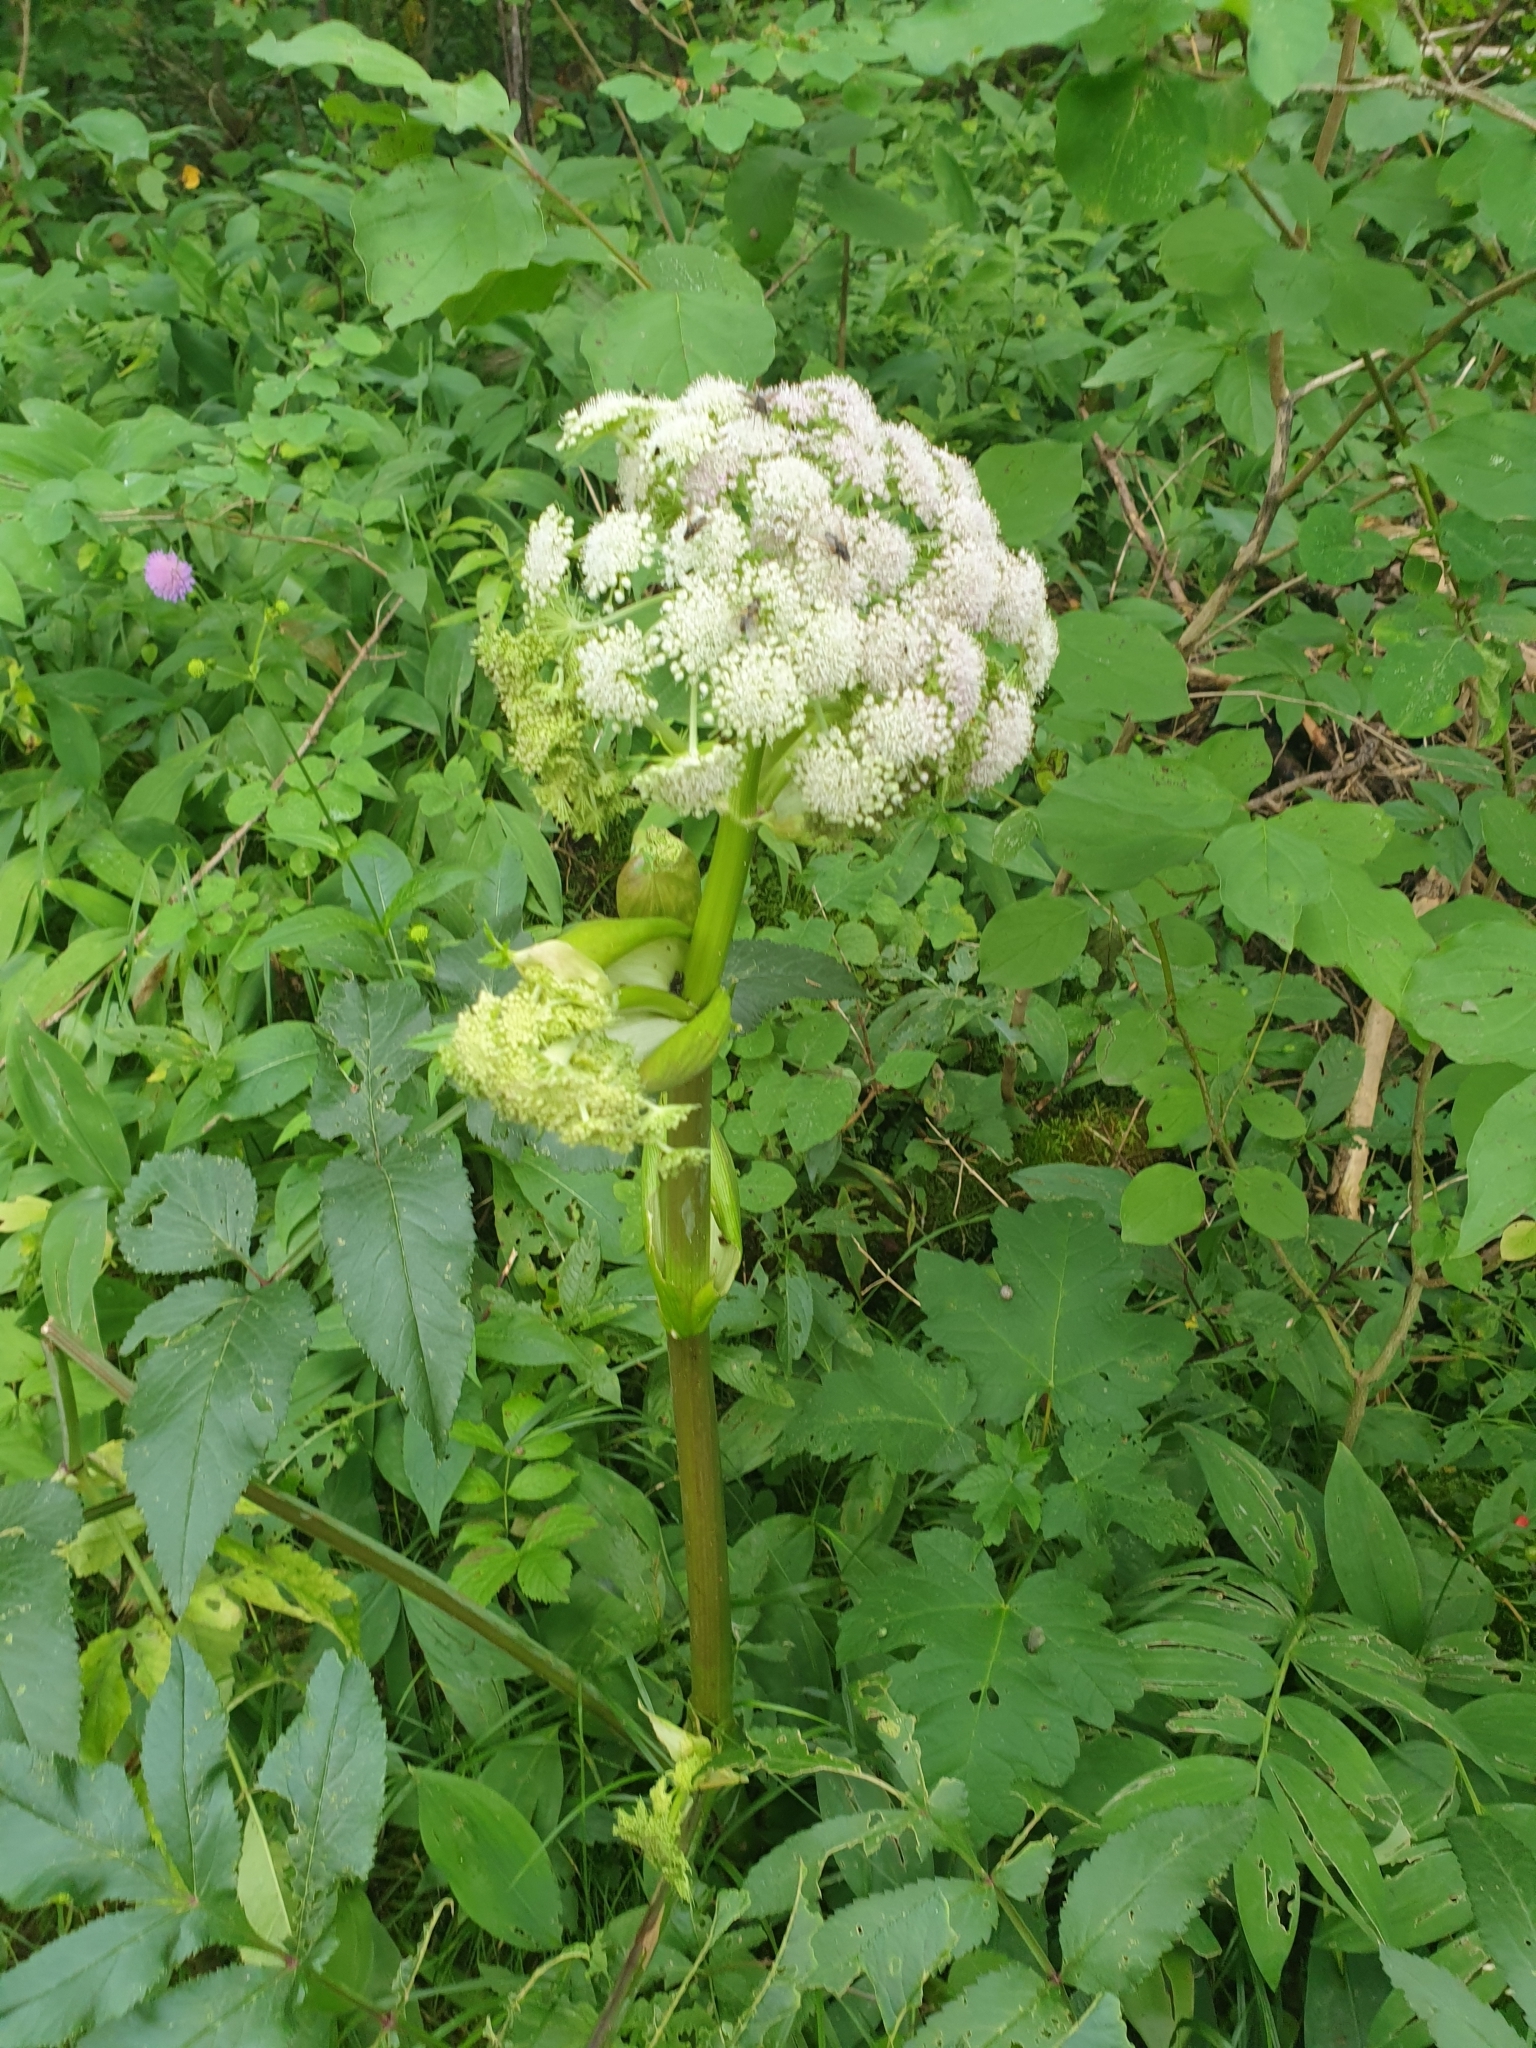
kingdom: Plantae
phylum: Tracheophyta
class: Magnoliopsida
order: Apiales
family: Apiaceae
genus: Angelica
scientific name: Angelica sylvestris
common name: Wild angelica
